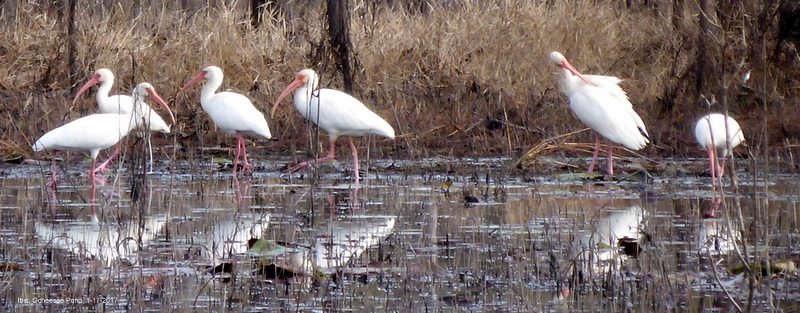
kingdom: Animalia
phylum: Chordata
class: Aves
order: Pelecaniformes
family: Threskiornithidae
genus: Eudocimus
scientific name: Eudocimus albus
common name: White ibis
